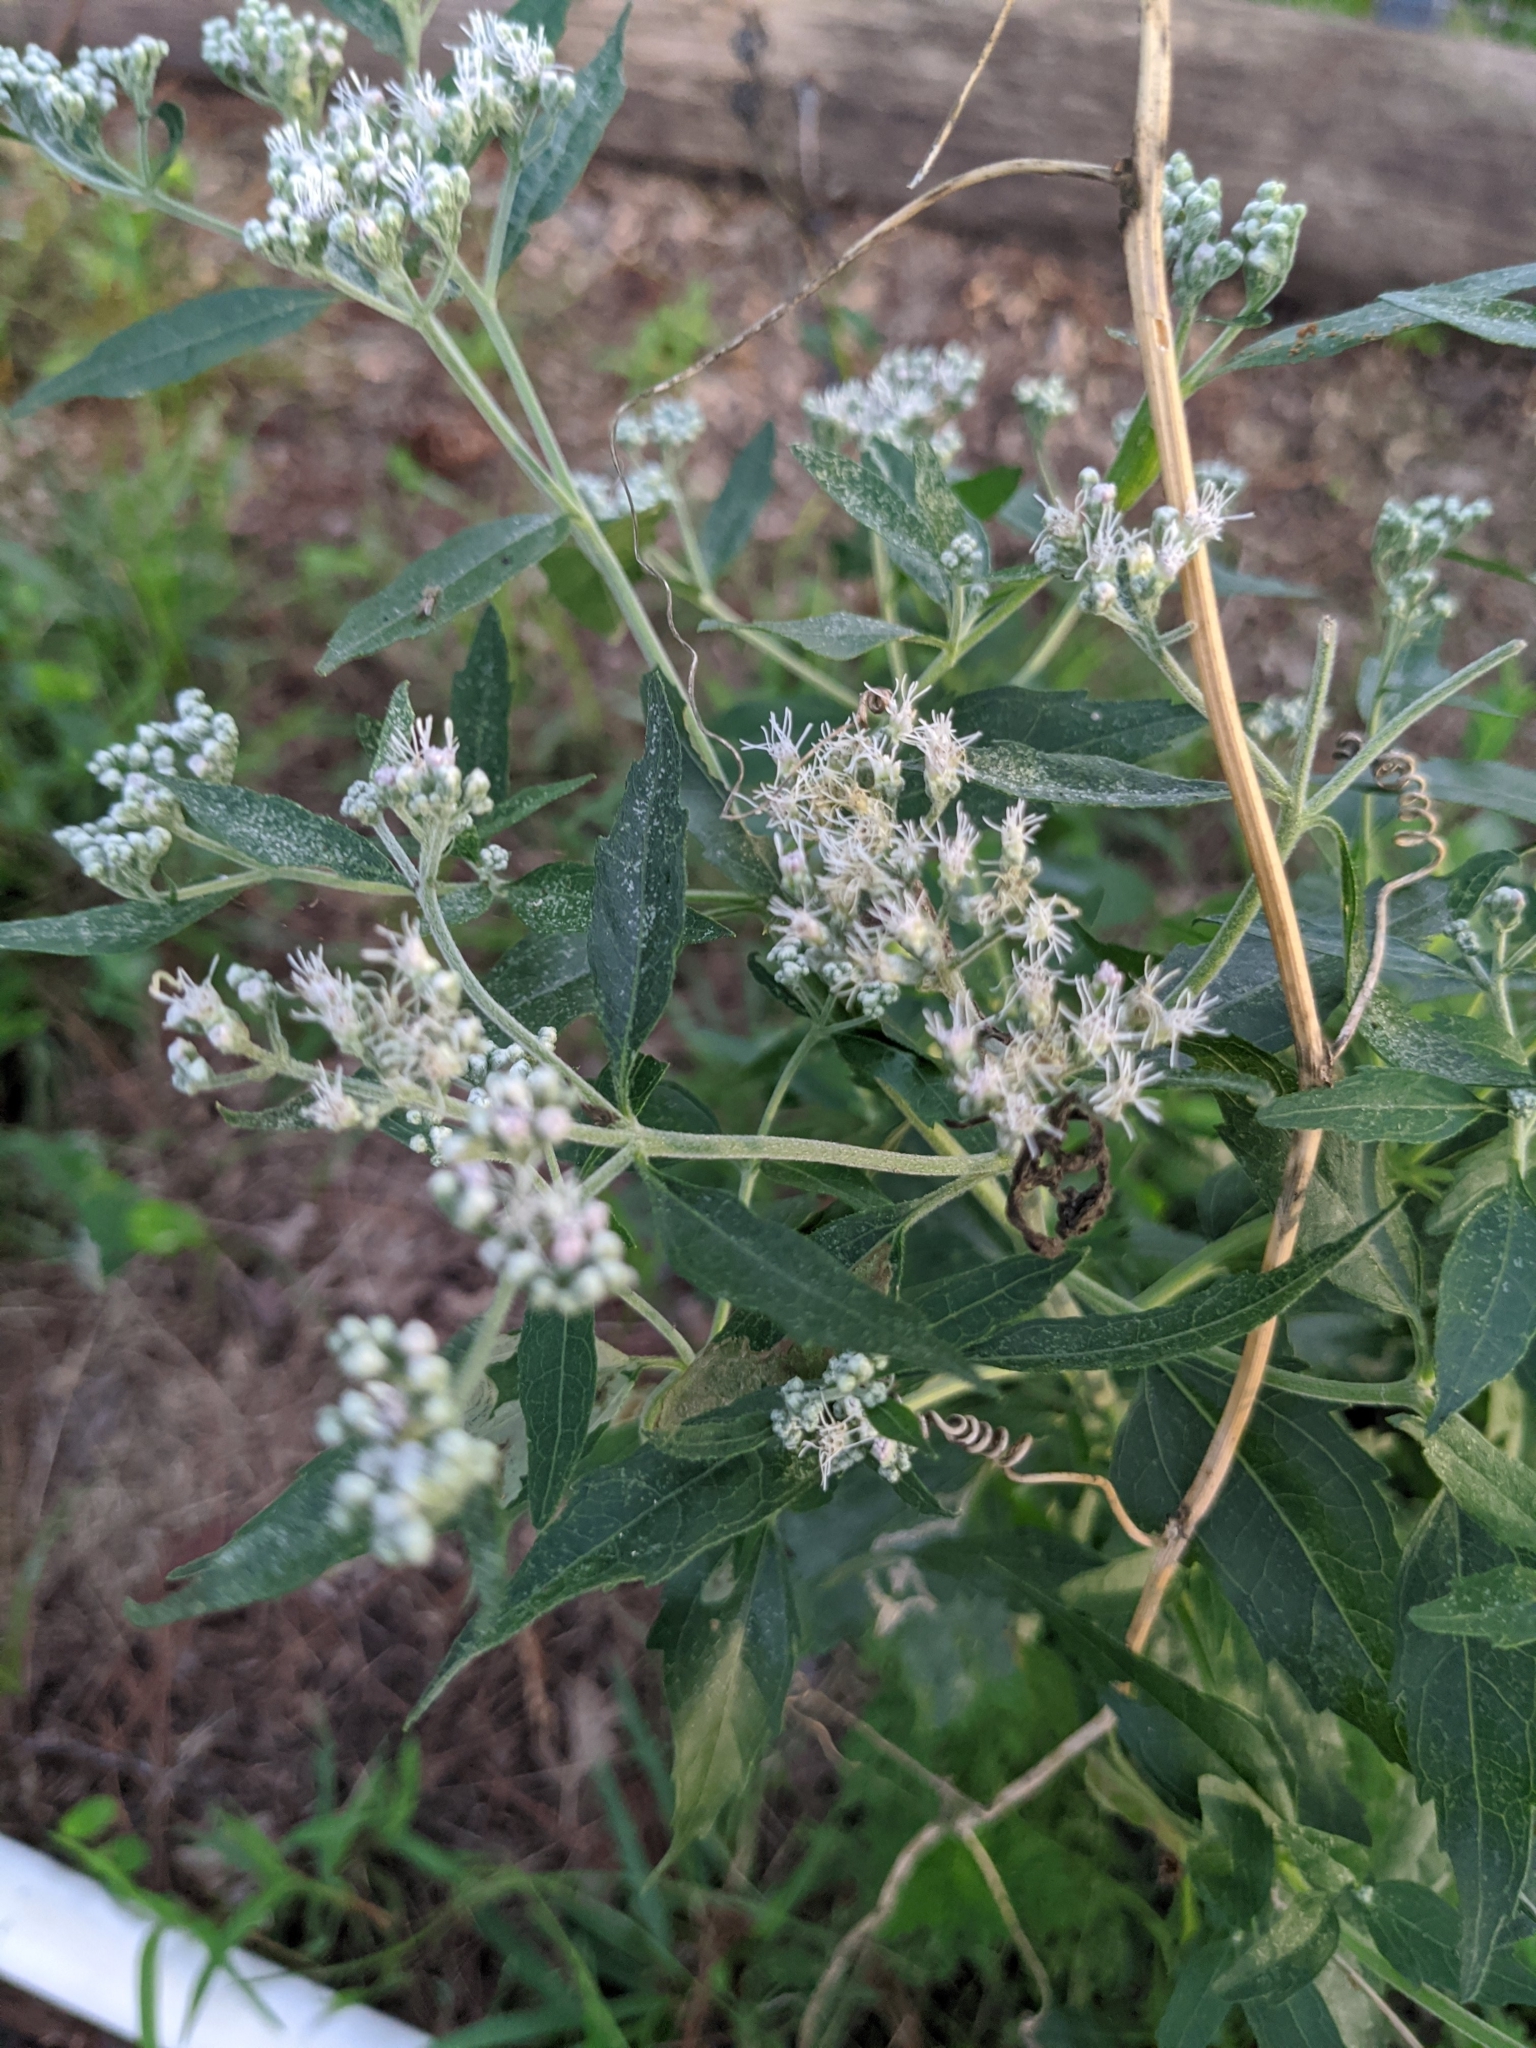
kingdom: Plantae
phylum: Tracheophyta
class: Magnoliopsida
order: Asterales
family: Asteraceae
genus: Eupatorium
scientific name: Eupatorium serotinum
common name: Late boneset
